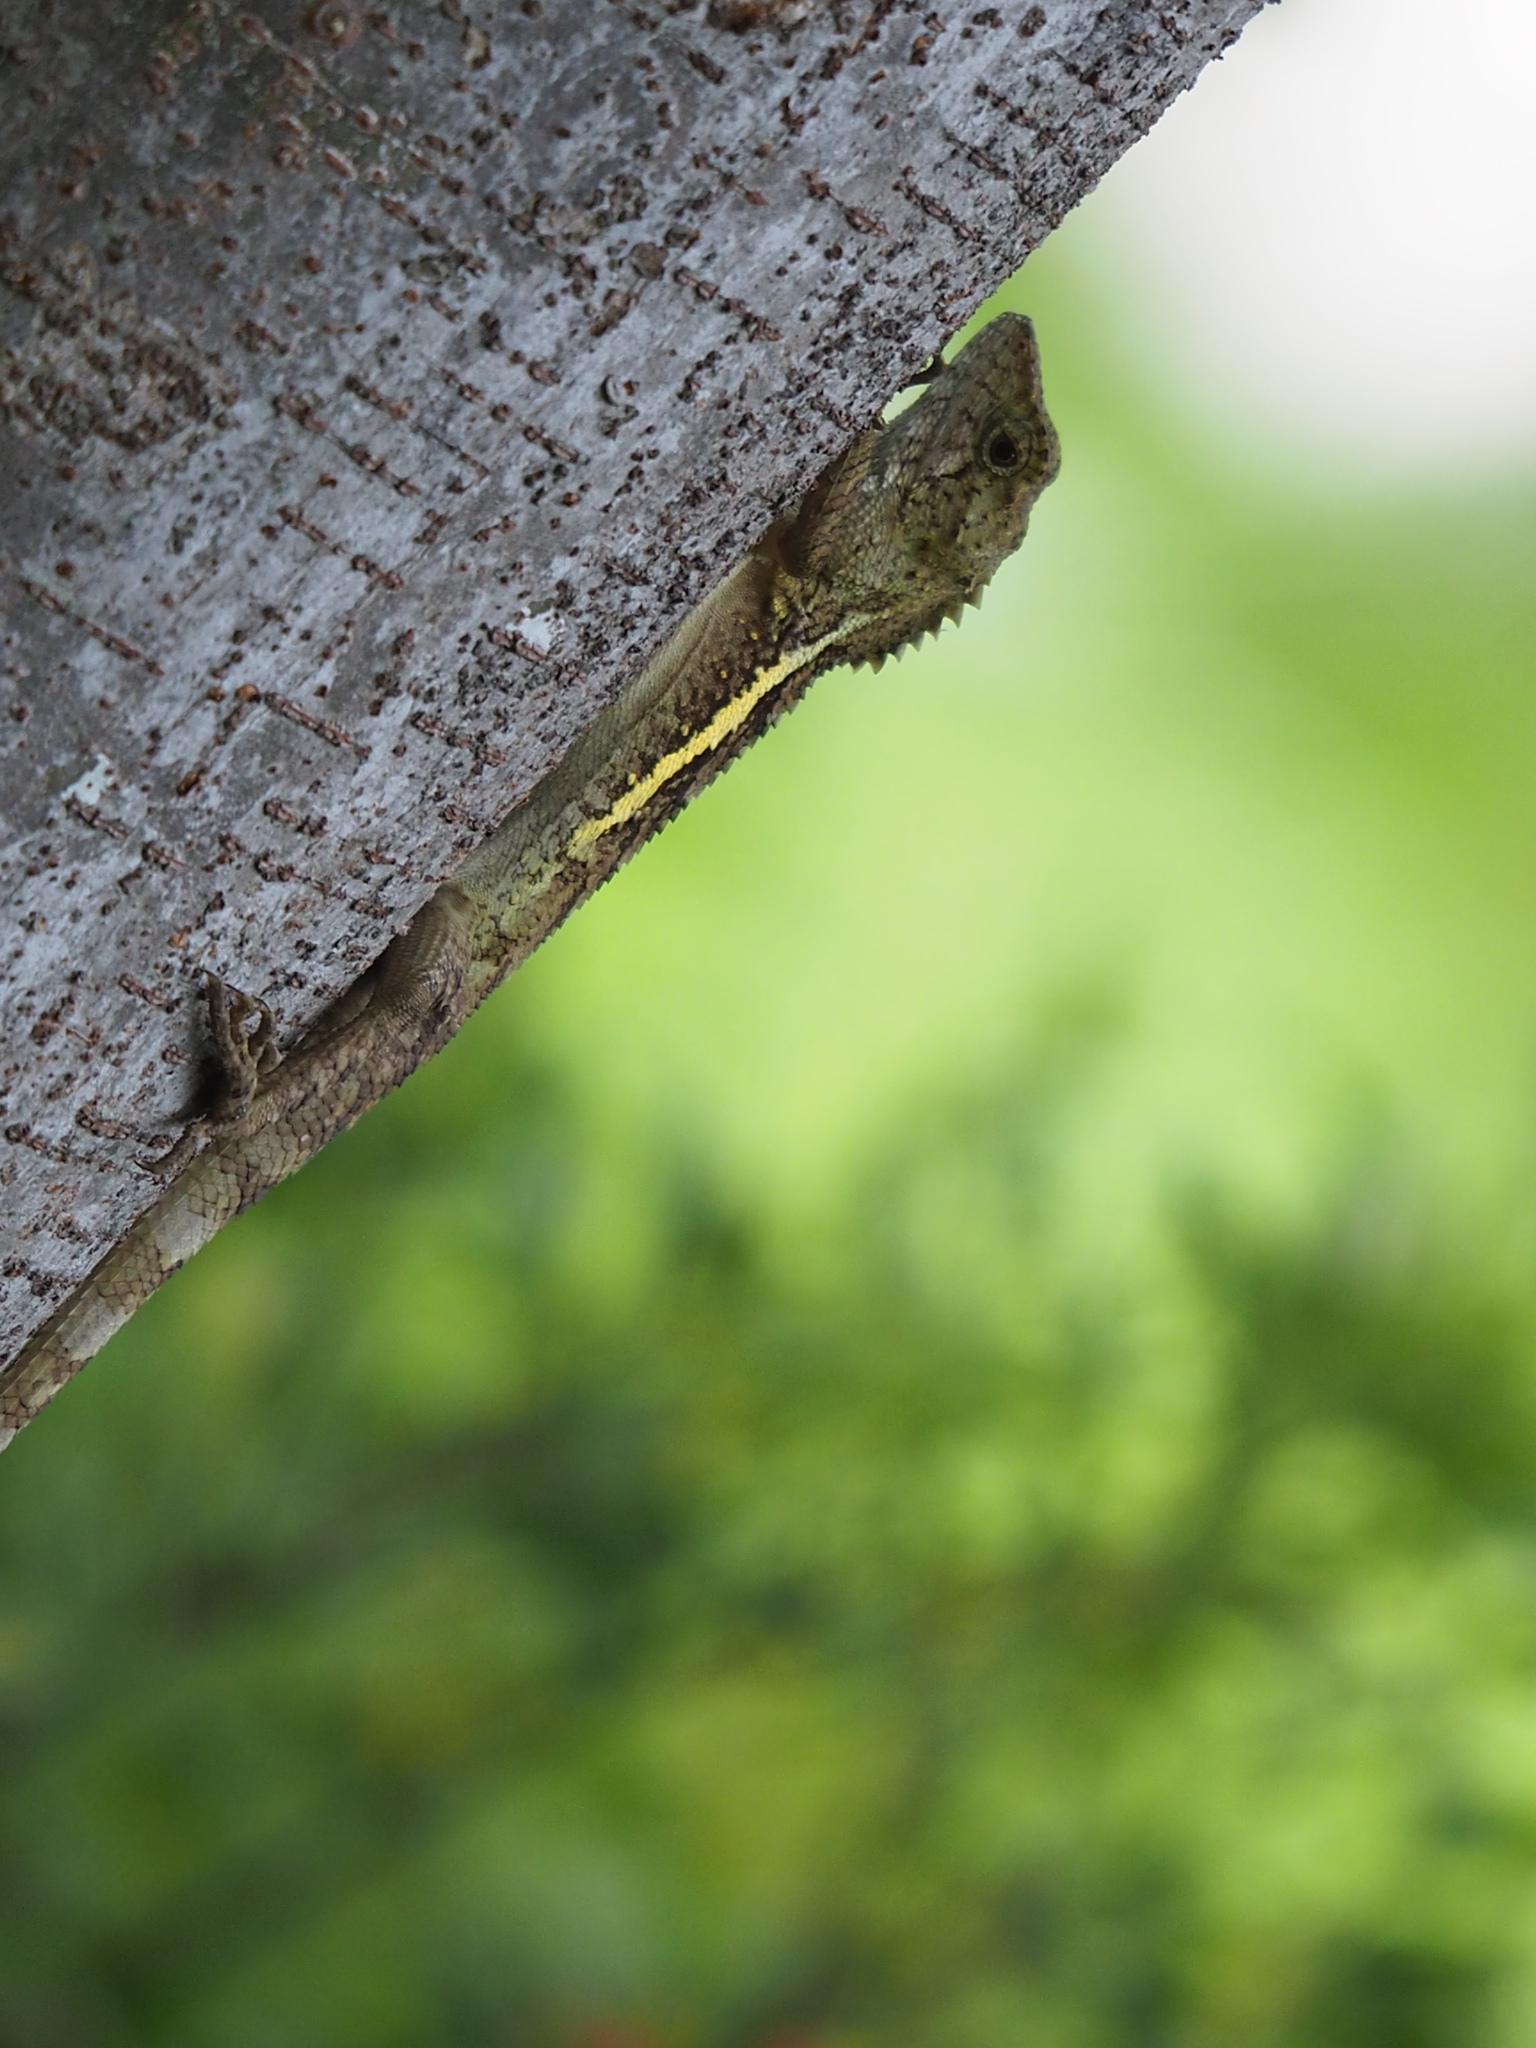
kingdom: Animalia
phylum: Chordata
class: Squamata
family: Agamidae
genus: Diploderma
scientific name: Diploderma swinhonis
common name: Taiwan japalure
